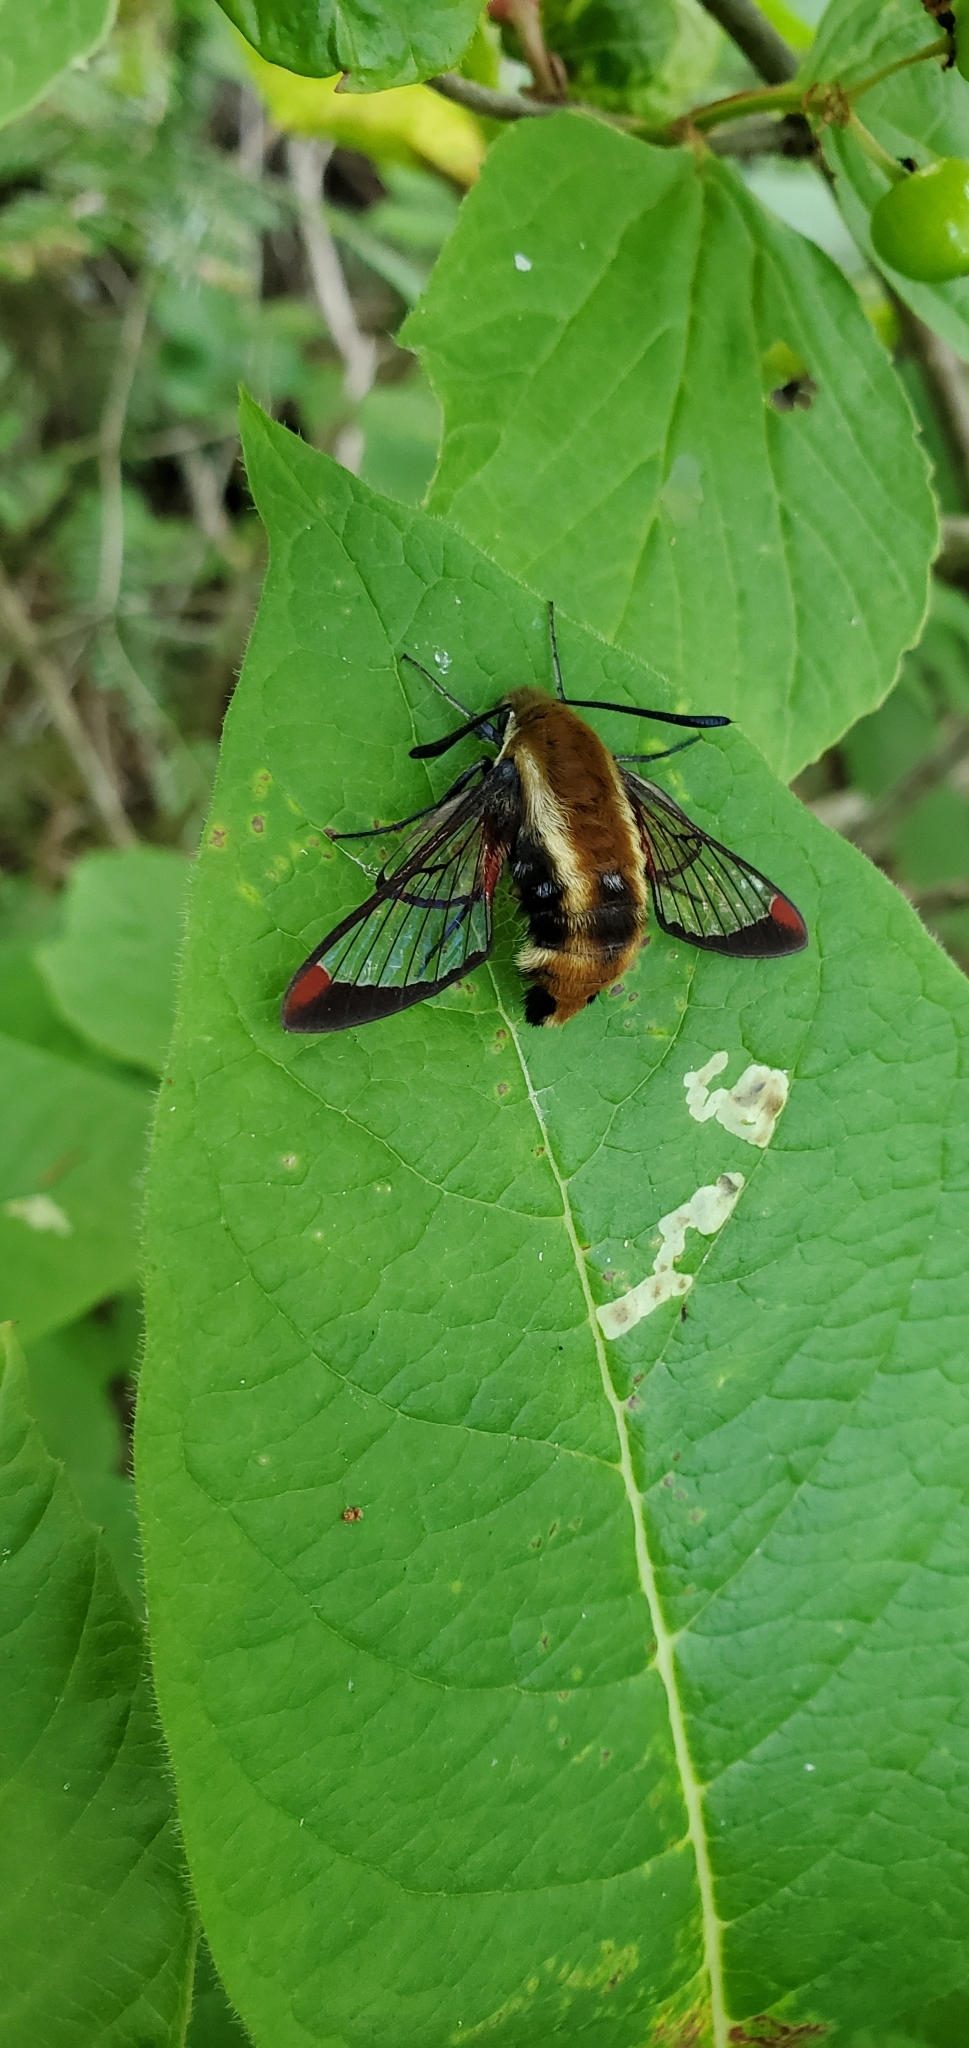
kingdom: Animalia
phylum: Arthropoda
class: Insecta
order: Lepidoptera
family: Sphingidae
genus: Hemaris
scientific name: Hemaris diffinis
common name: Bumblebee moth
